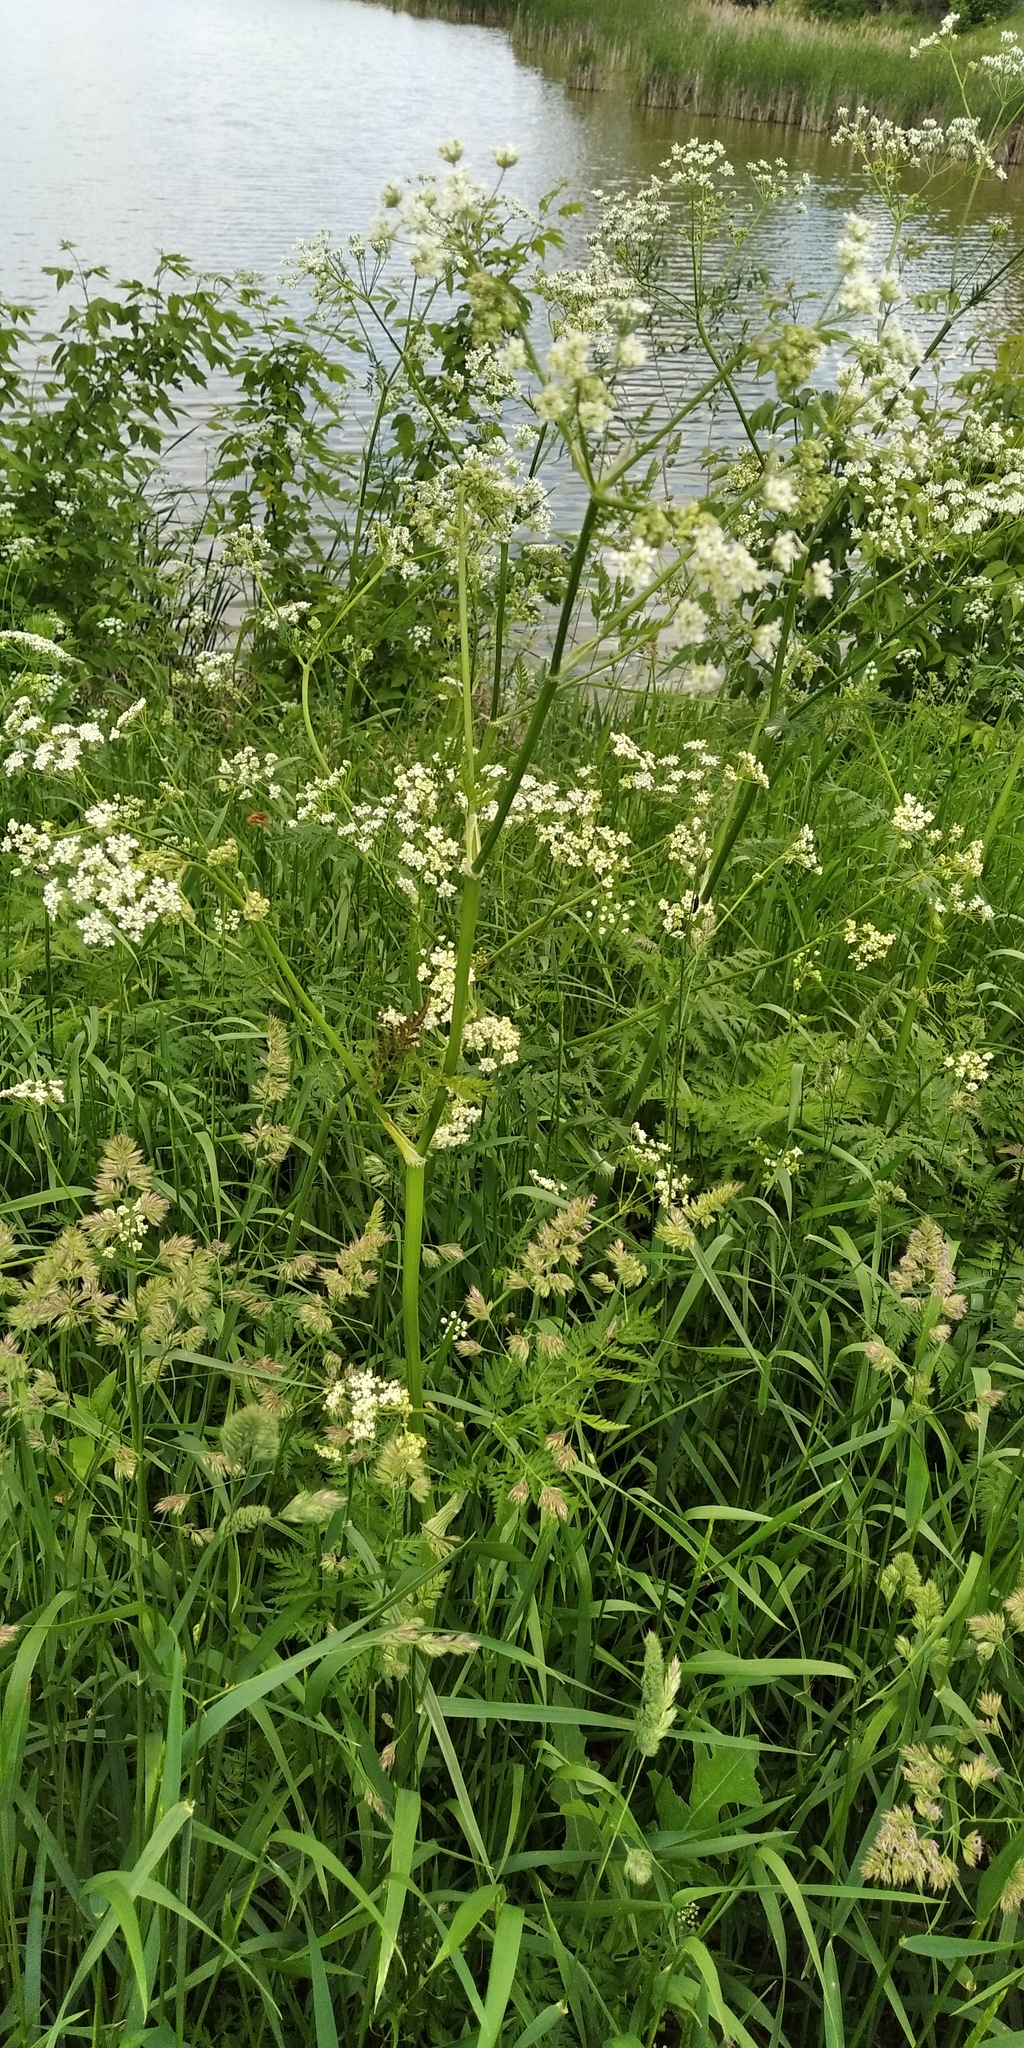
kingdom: Plantae
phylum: Tracheophyta
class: Magnoliopsida
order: Apiales
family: Apiaceae
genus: Anthriscus
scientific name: Anthriscus sylvestris
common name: Cow parsley
